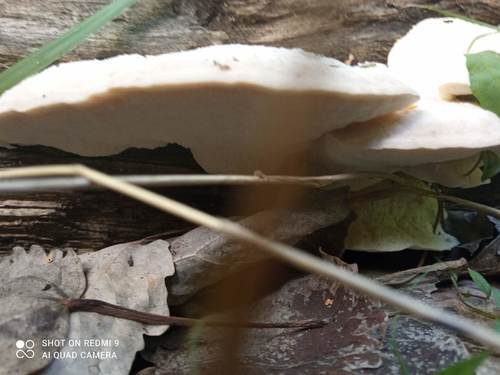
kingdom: Fungi
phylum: Basidiomycota
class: Agaricomycetes
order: Polyporales
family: Polyporaceae
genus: Trametes
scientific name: Trametes suaveolens
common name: Fragrant bracket
